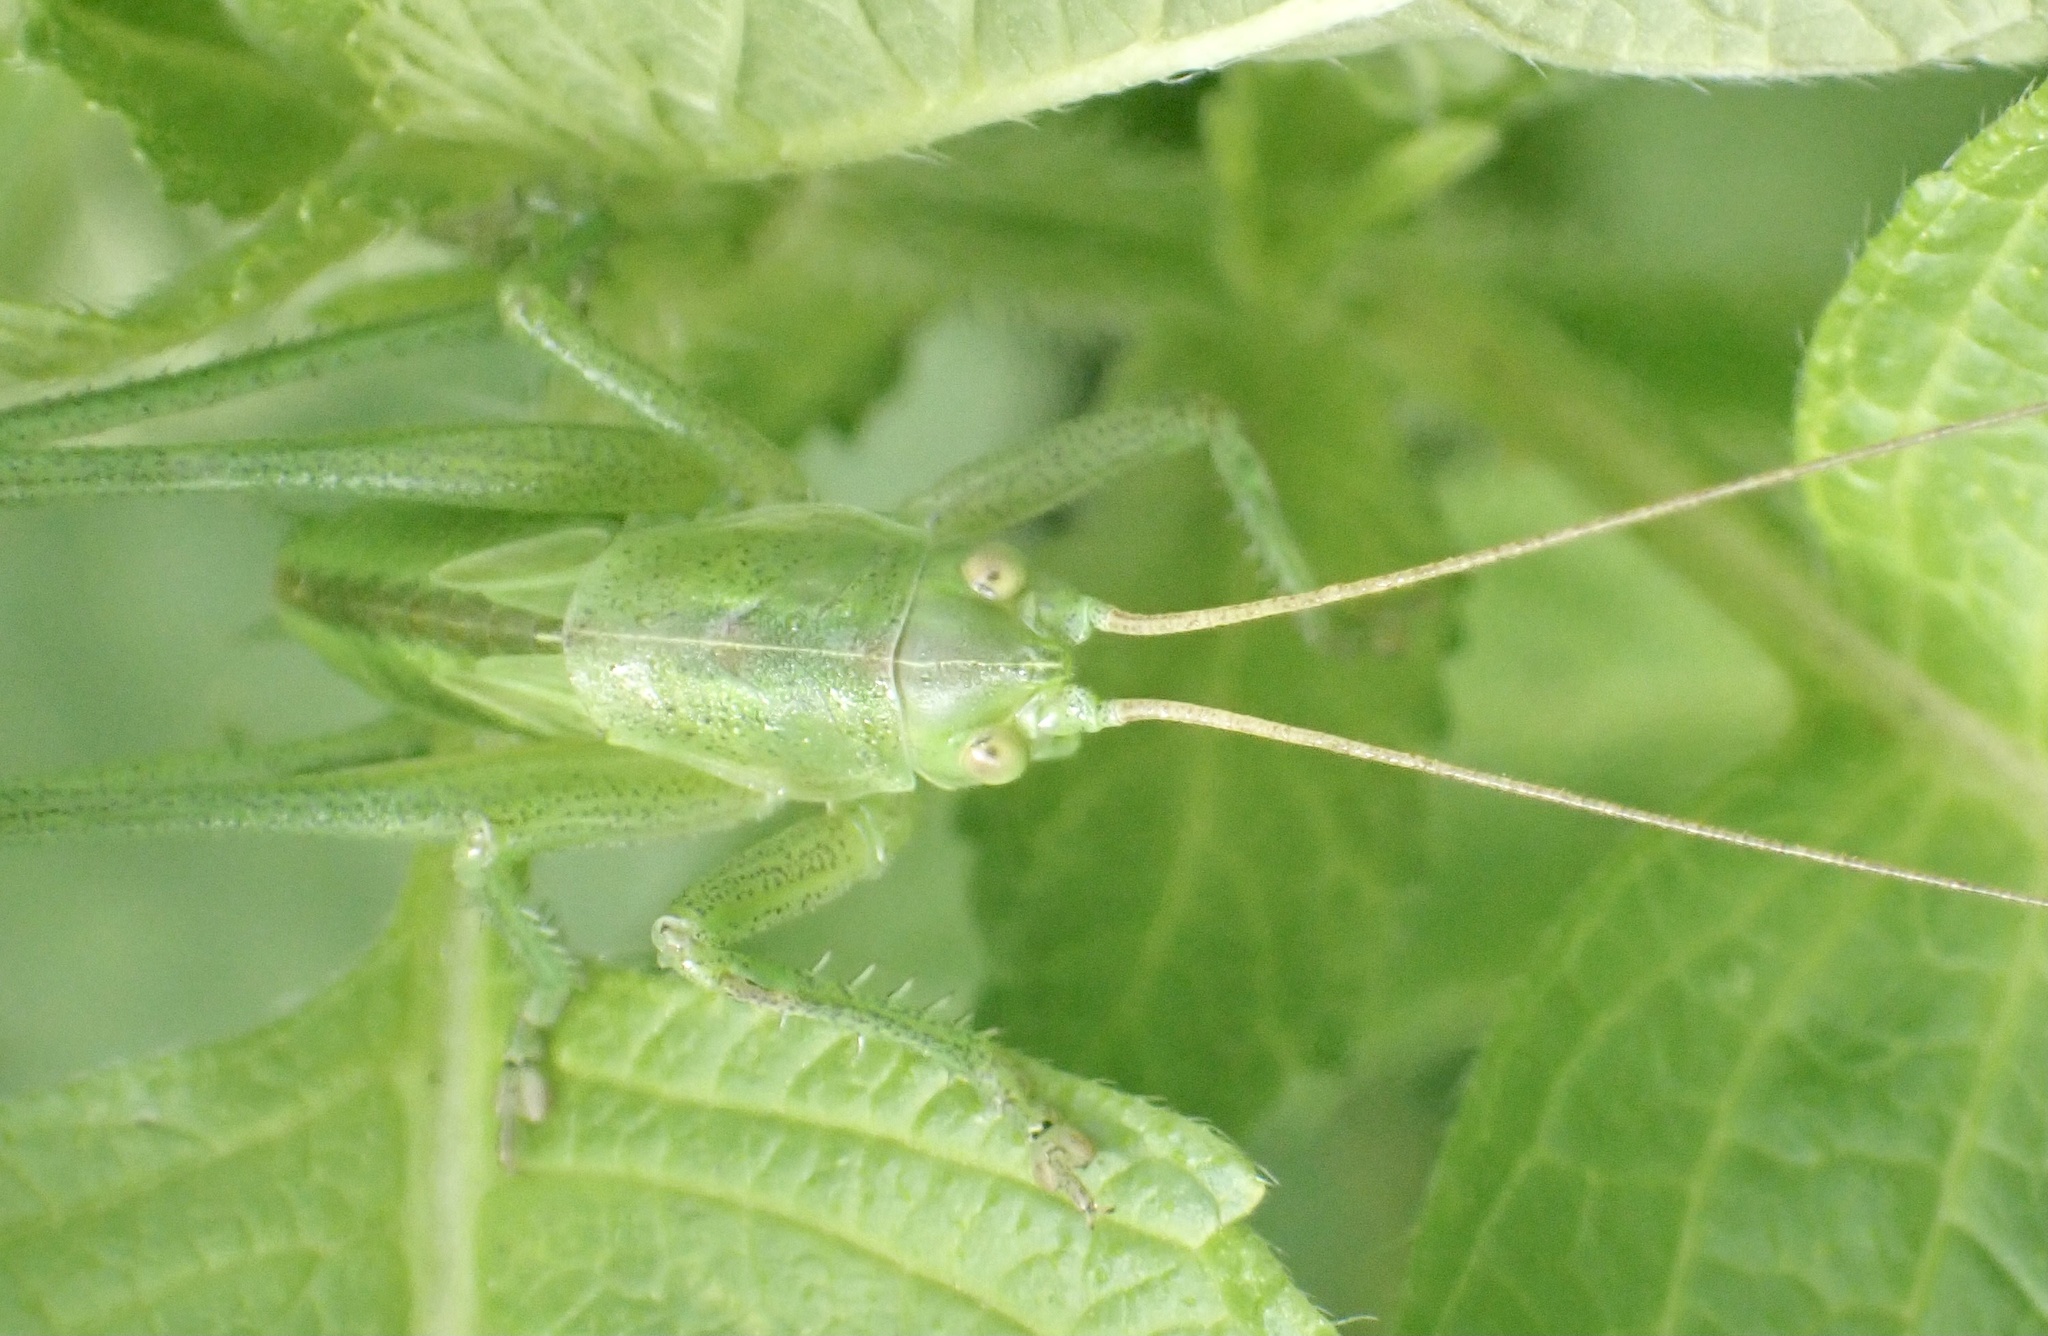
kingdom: Animalia
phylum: Arthropoda
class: Insecta
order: Orthoptera
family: Tettigoniidae
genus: Tettigonia
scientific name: Tettigonia viridissima
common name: Great green bush-cricket
